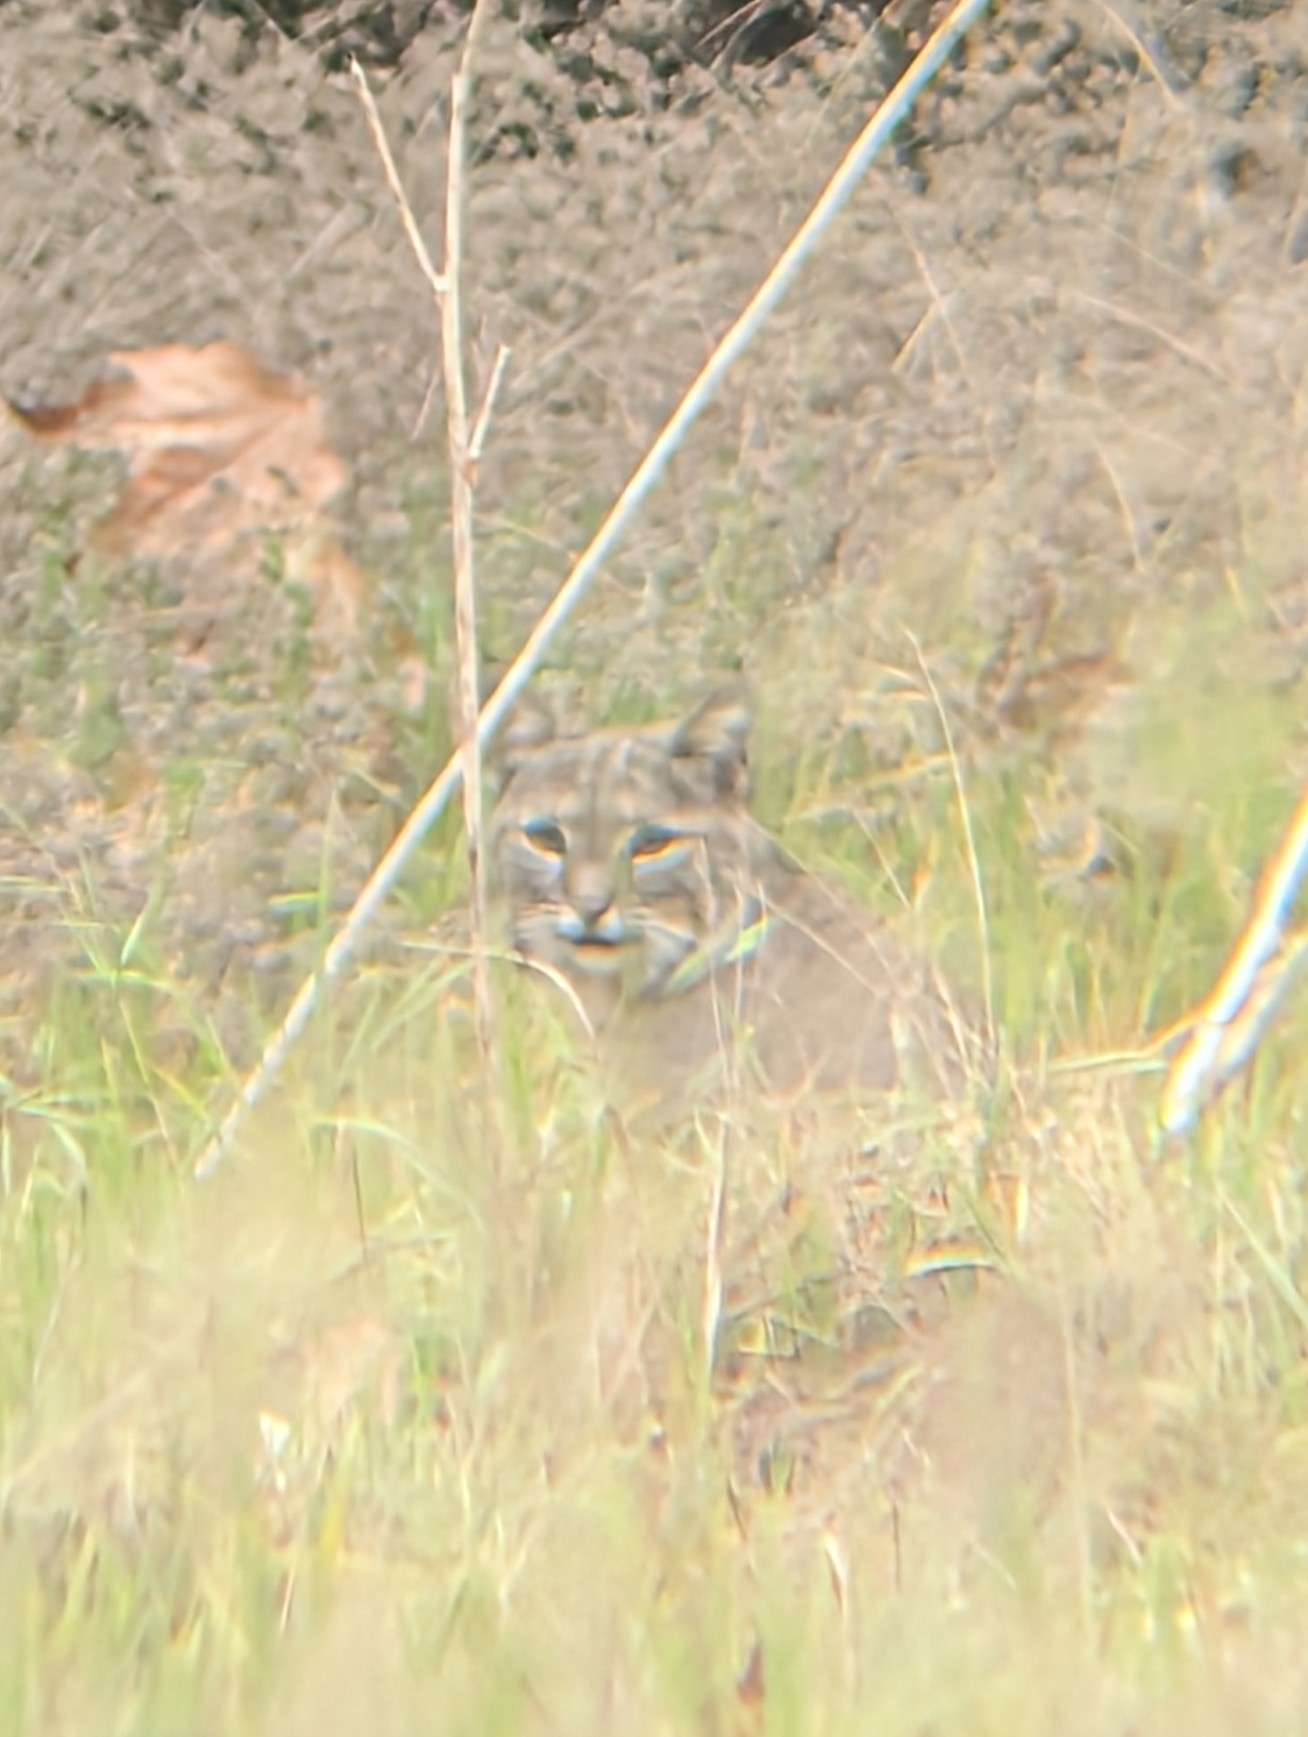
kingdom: Animalia
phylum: Chordata
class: Mammalia
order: Carnivora
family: Felidae
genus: Lynx
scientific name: Lynx rufus
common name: Bobcat
